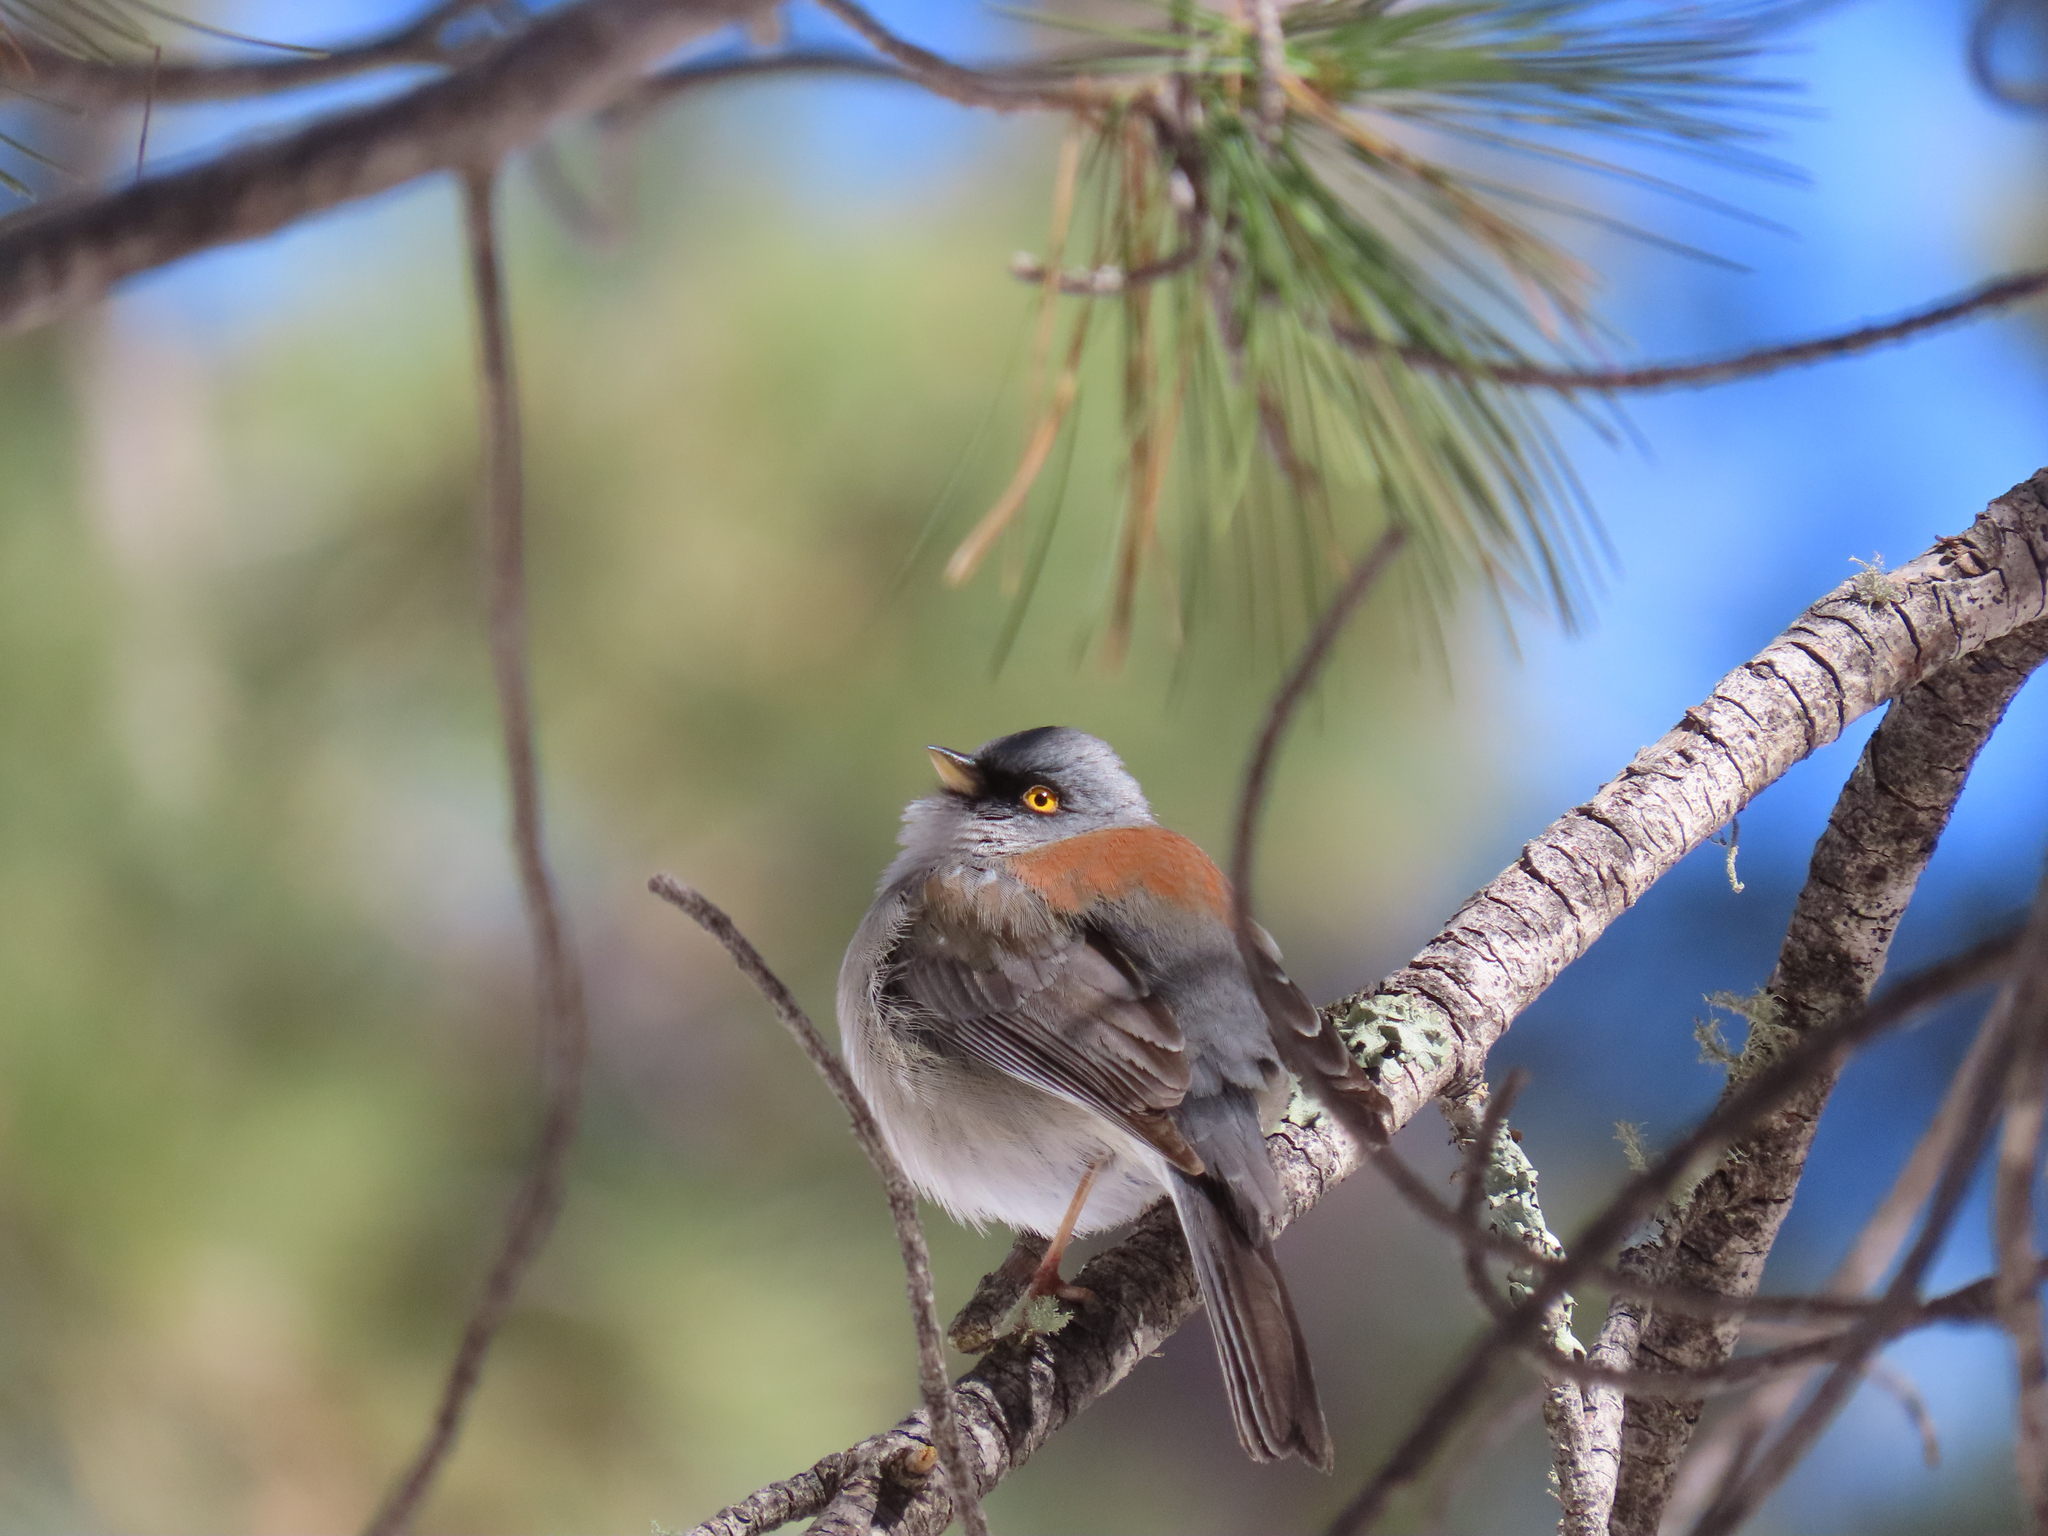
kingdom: Animalia
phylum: Chordata
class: Aves
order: Passeriformes
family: Passerellidae
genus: Junco
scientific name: Junco phaeonotus
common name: Yellow-eyed junco
